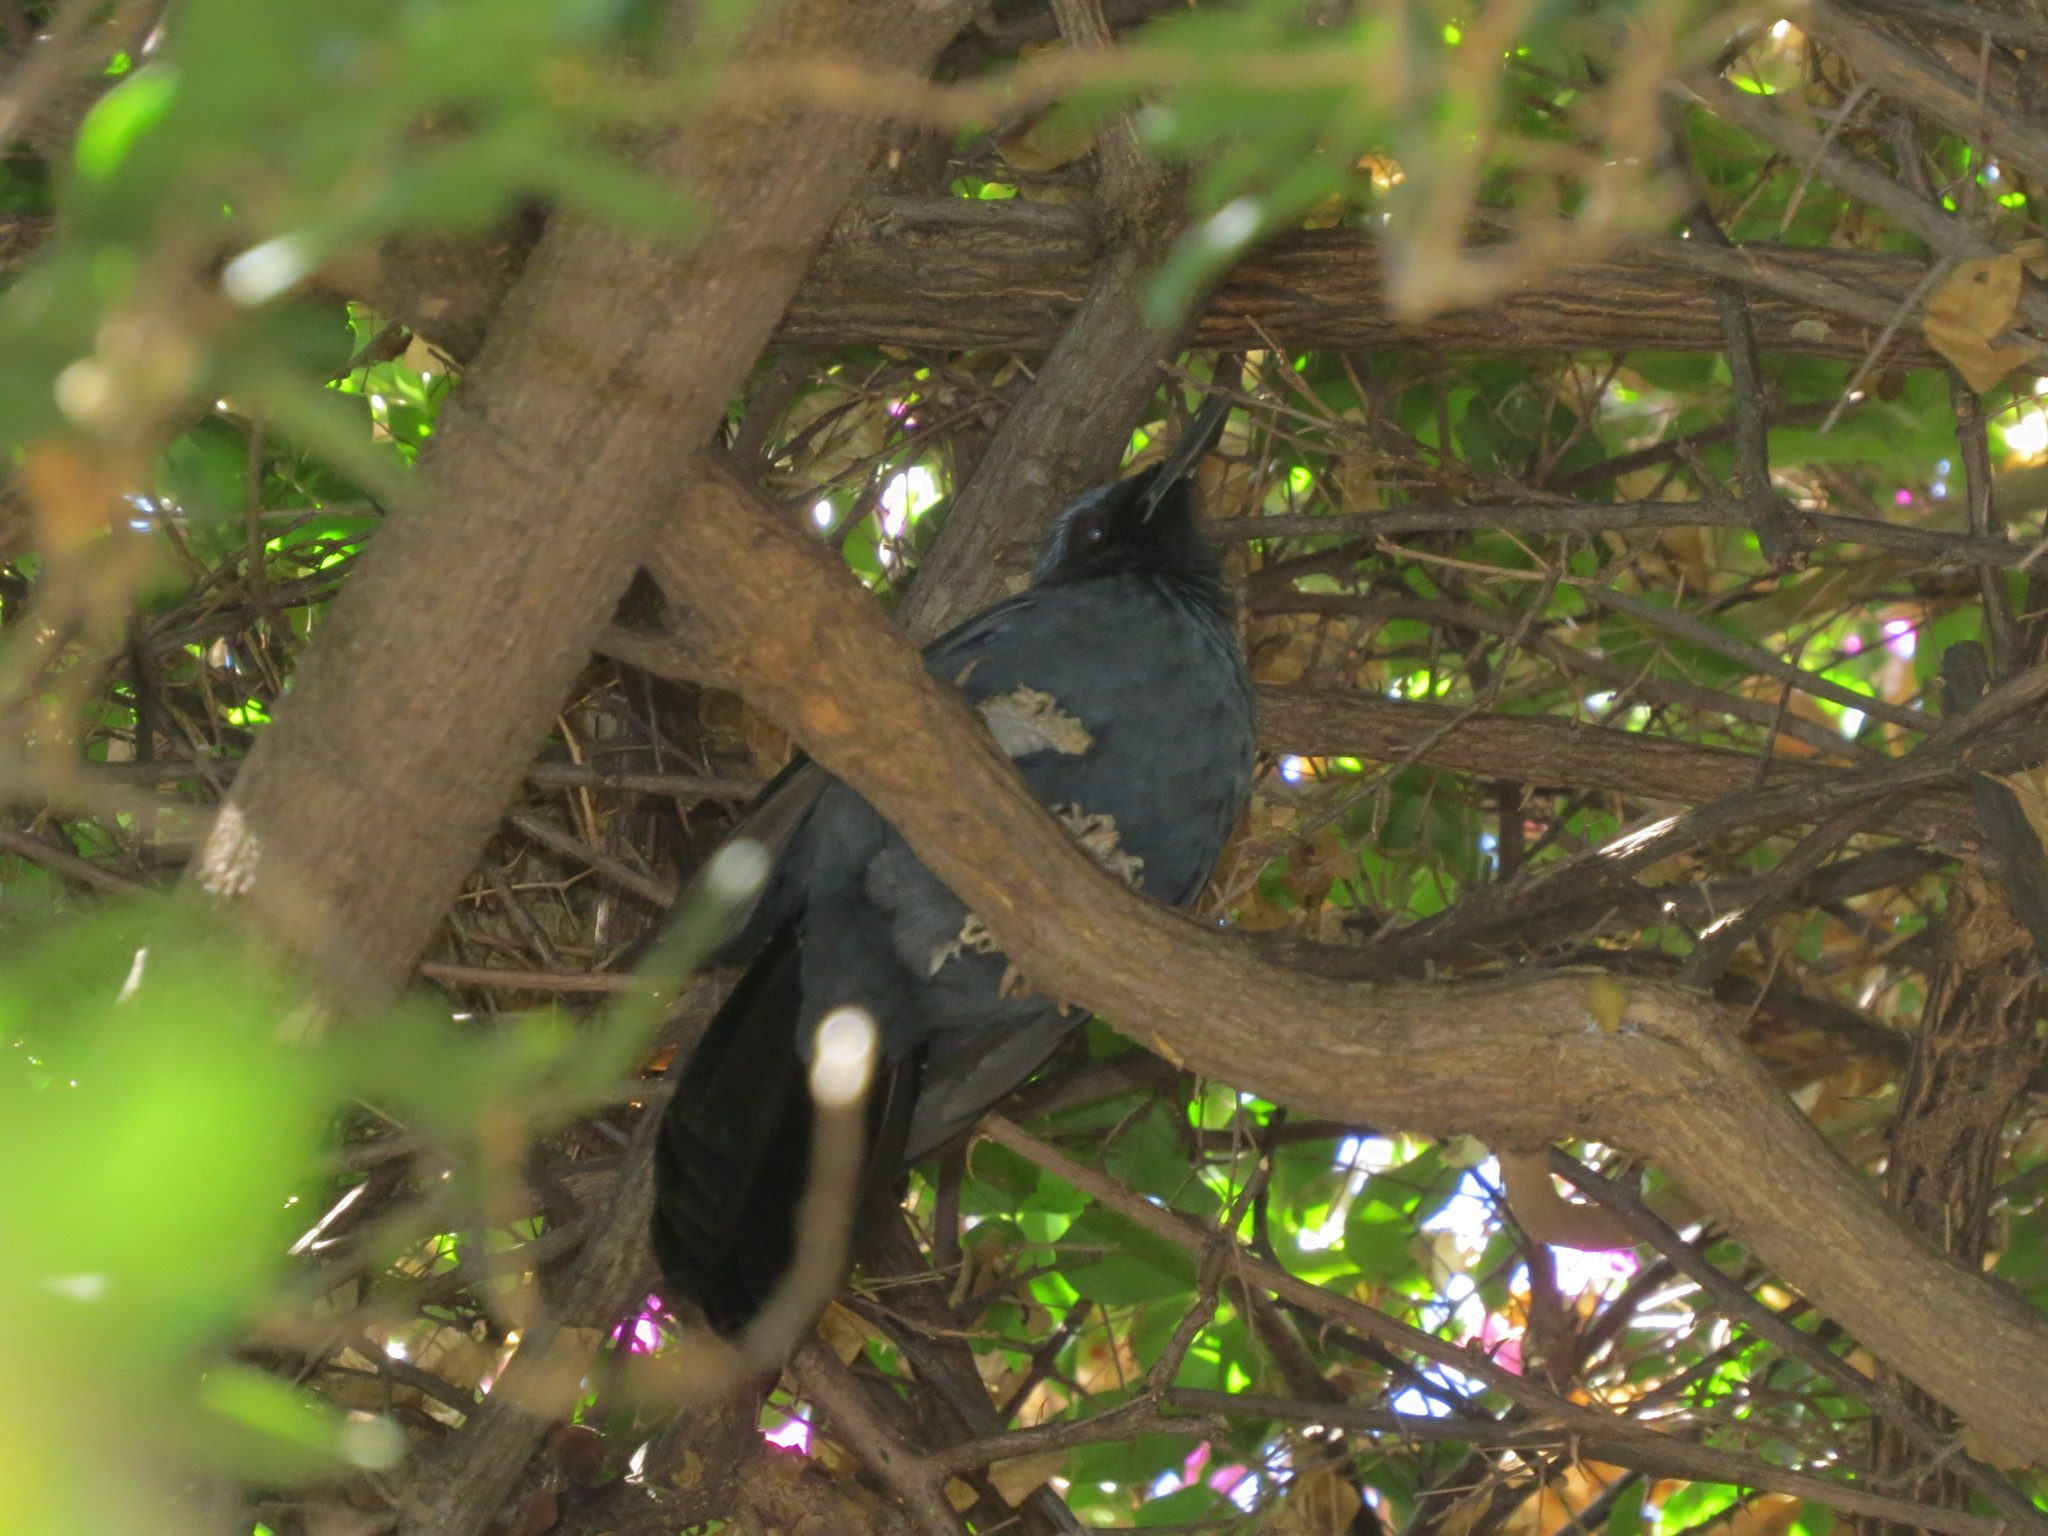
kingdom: Animalia
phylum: Chordata
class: Aves
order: Passeriformes
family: Mimidae
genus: Melanotis
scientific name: Melanotis caerulescens
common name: Blue mockingbird
